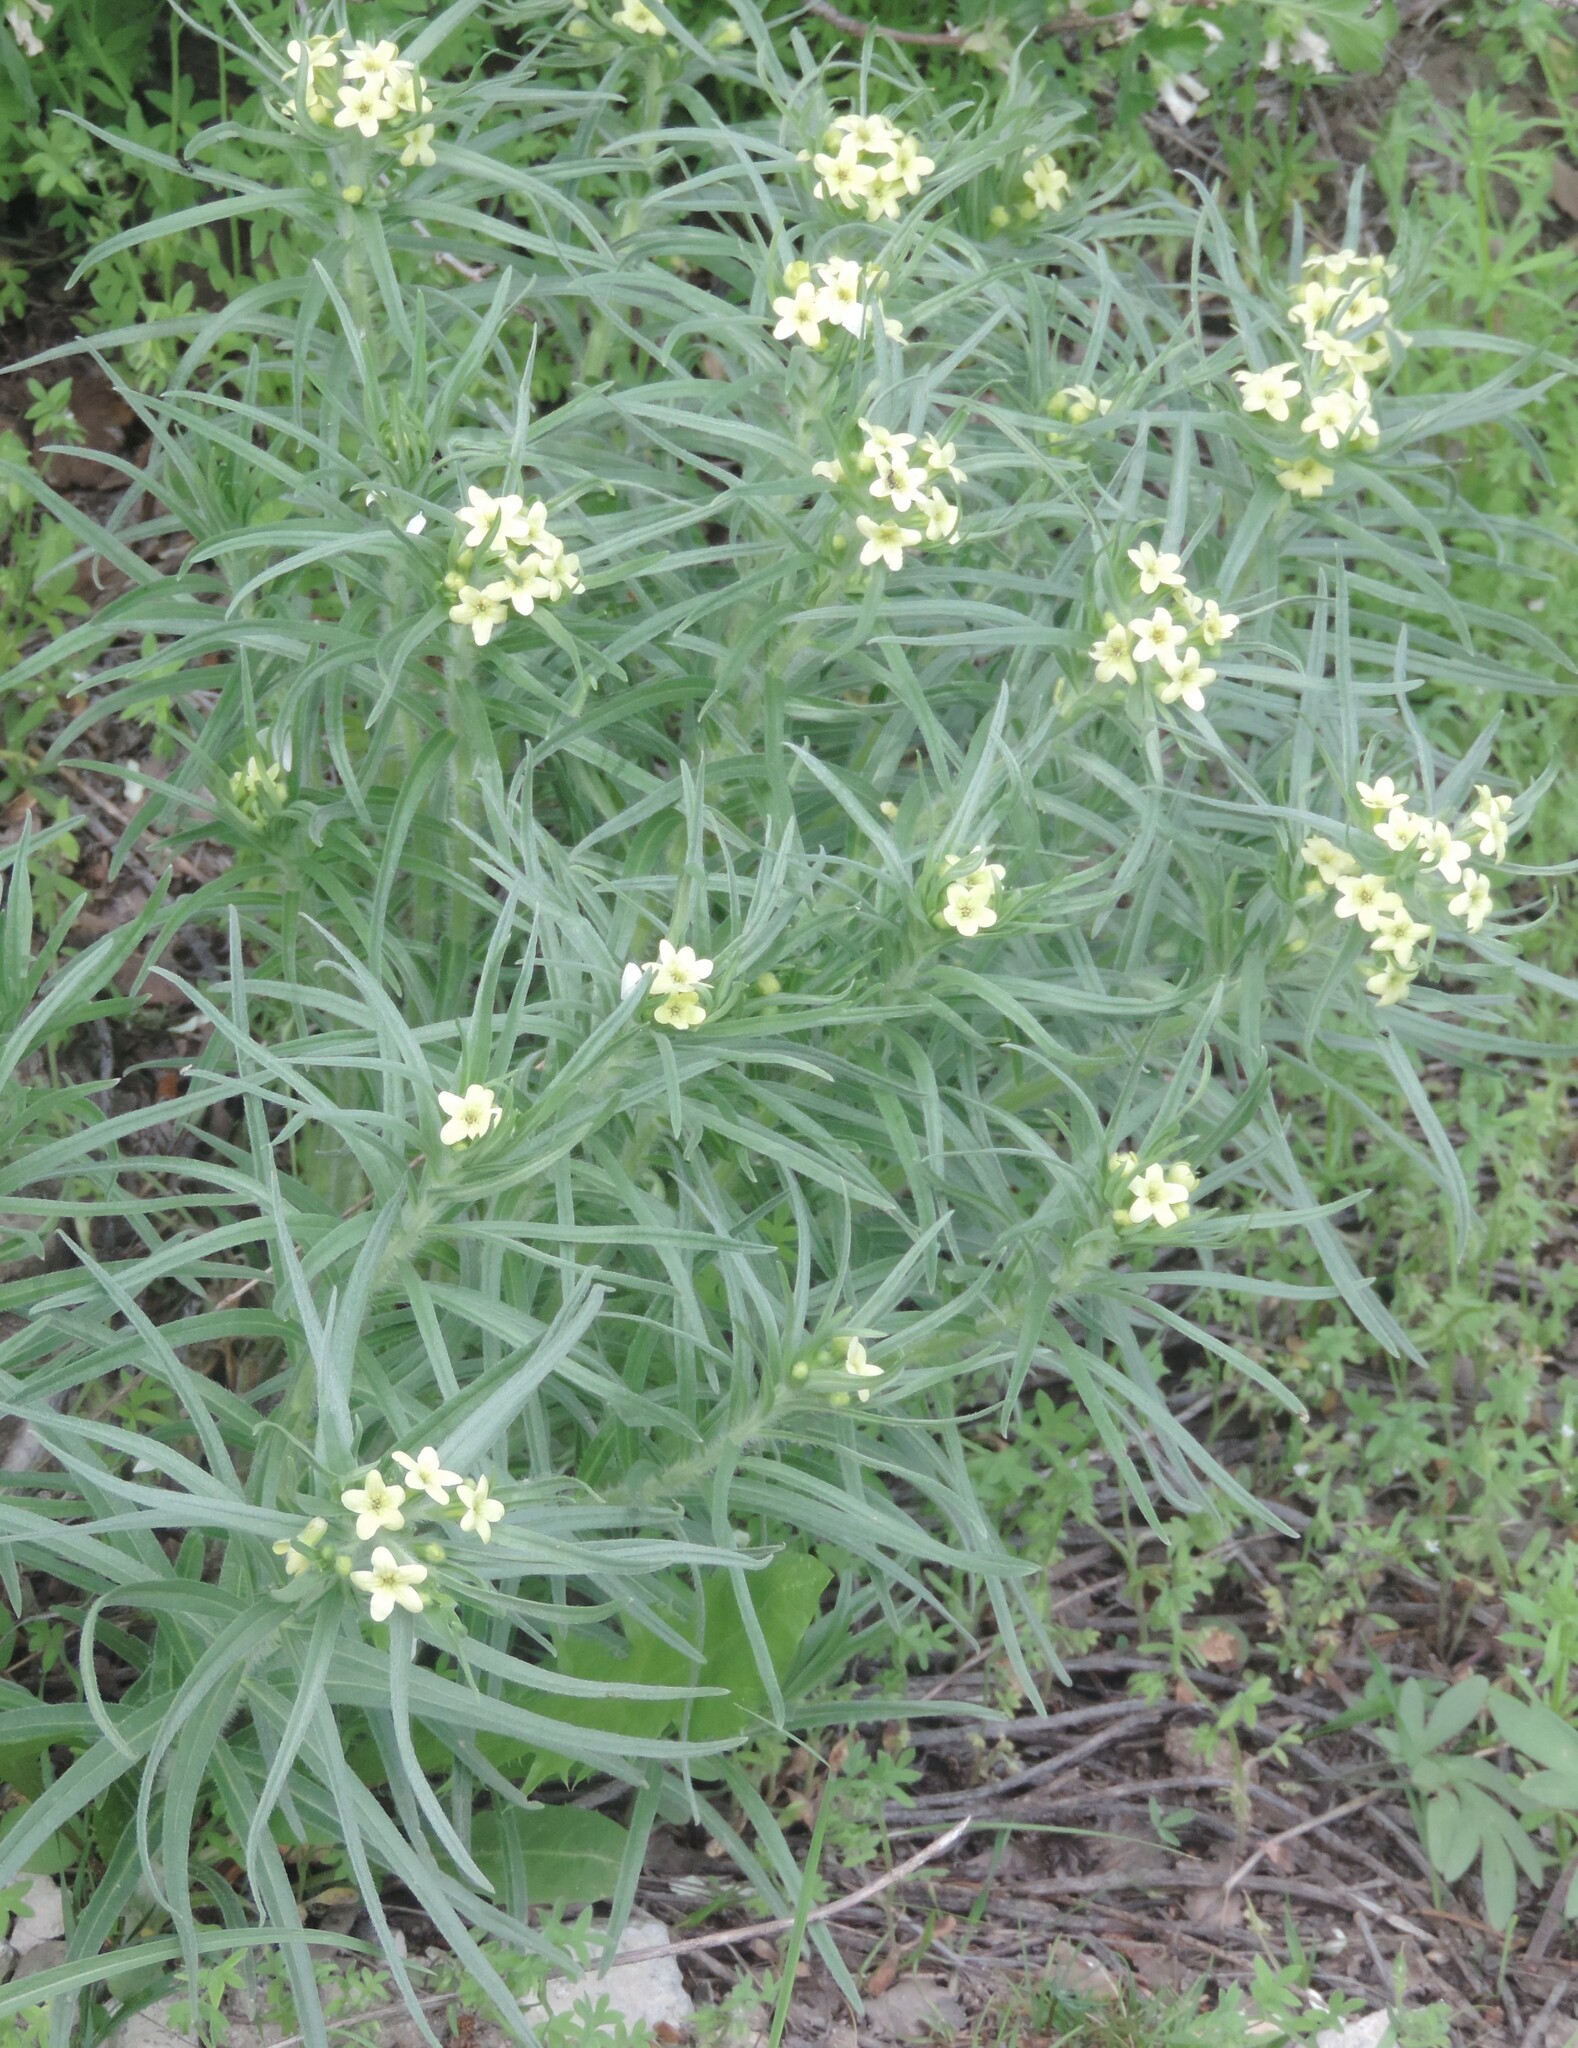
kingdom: Plantae
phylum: Tracheophyta
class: Magnoliopsida
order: Boraginales
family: Boraginaceae
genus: Lithospermum
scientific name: Lithospermum ruderale
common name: Western gromwell
